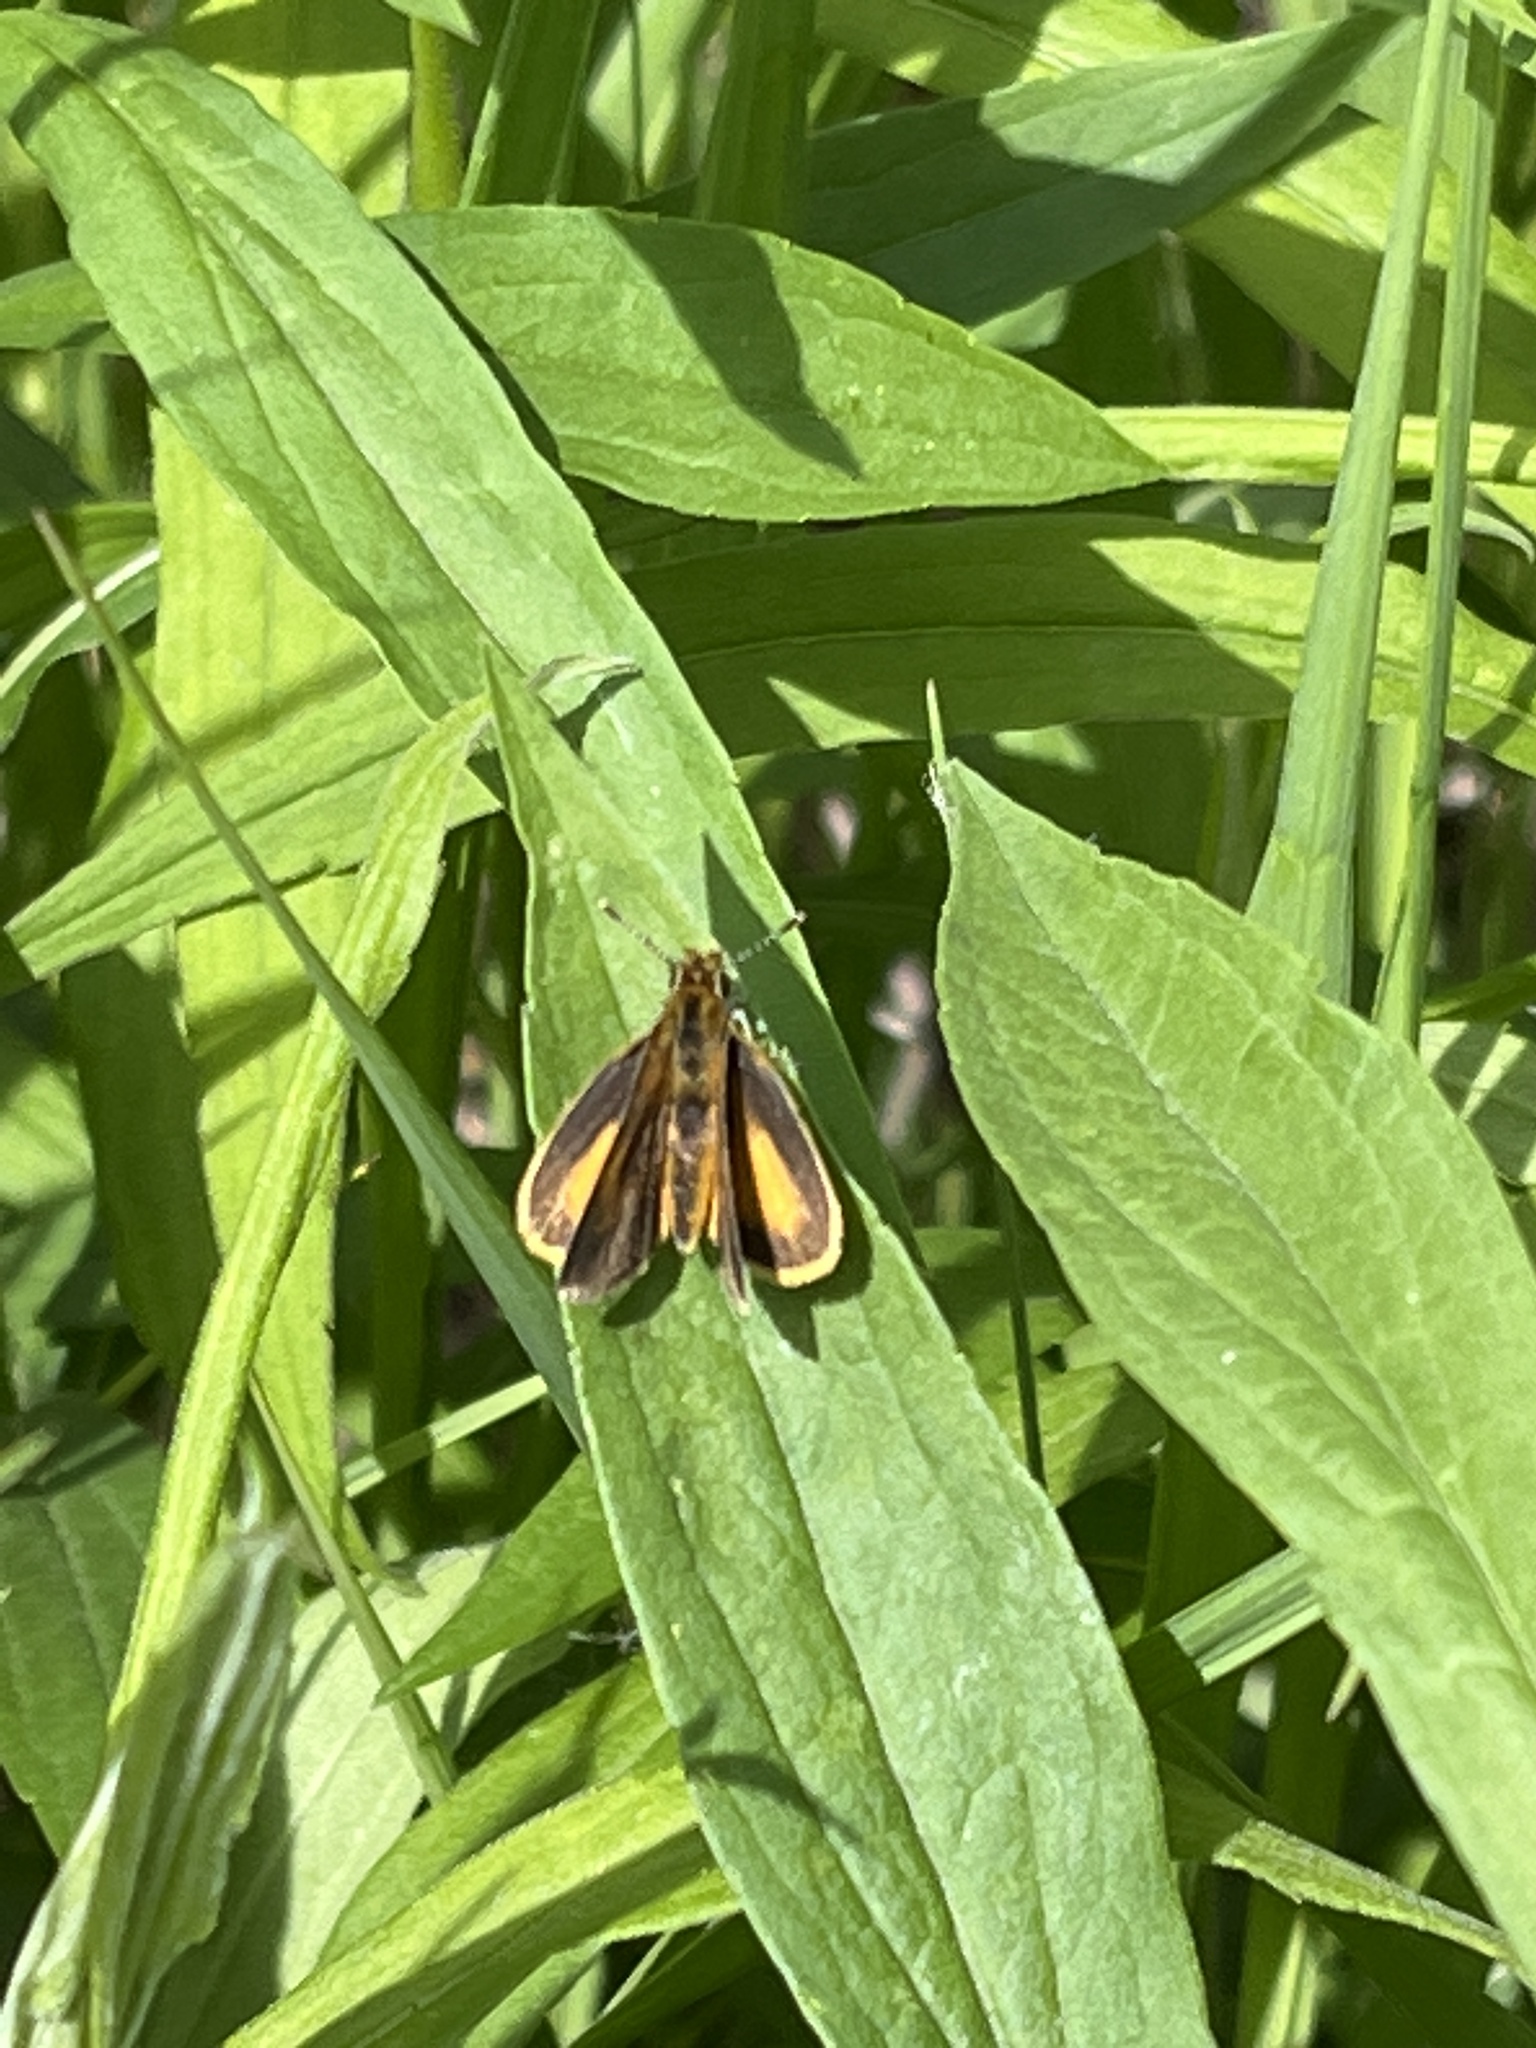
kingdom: Animalia
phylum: Arthropoda
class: Insecta
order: Lepidoptera
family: Hesperiidae
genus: Ancyloxypha
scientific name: Ancyloxypha numitor
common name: Least skipper
